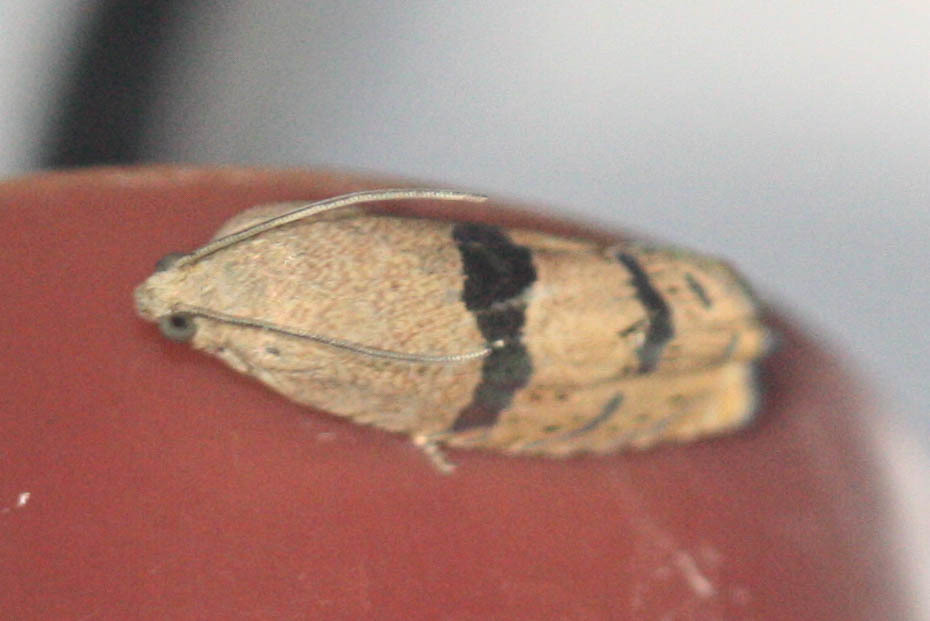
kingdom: Animalia
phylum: Arthropoda
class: Insecta
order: Lepidoptera
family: Tortricidae
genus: Cydia
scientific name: Cydia latiferreana
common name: Filbertworm moth
